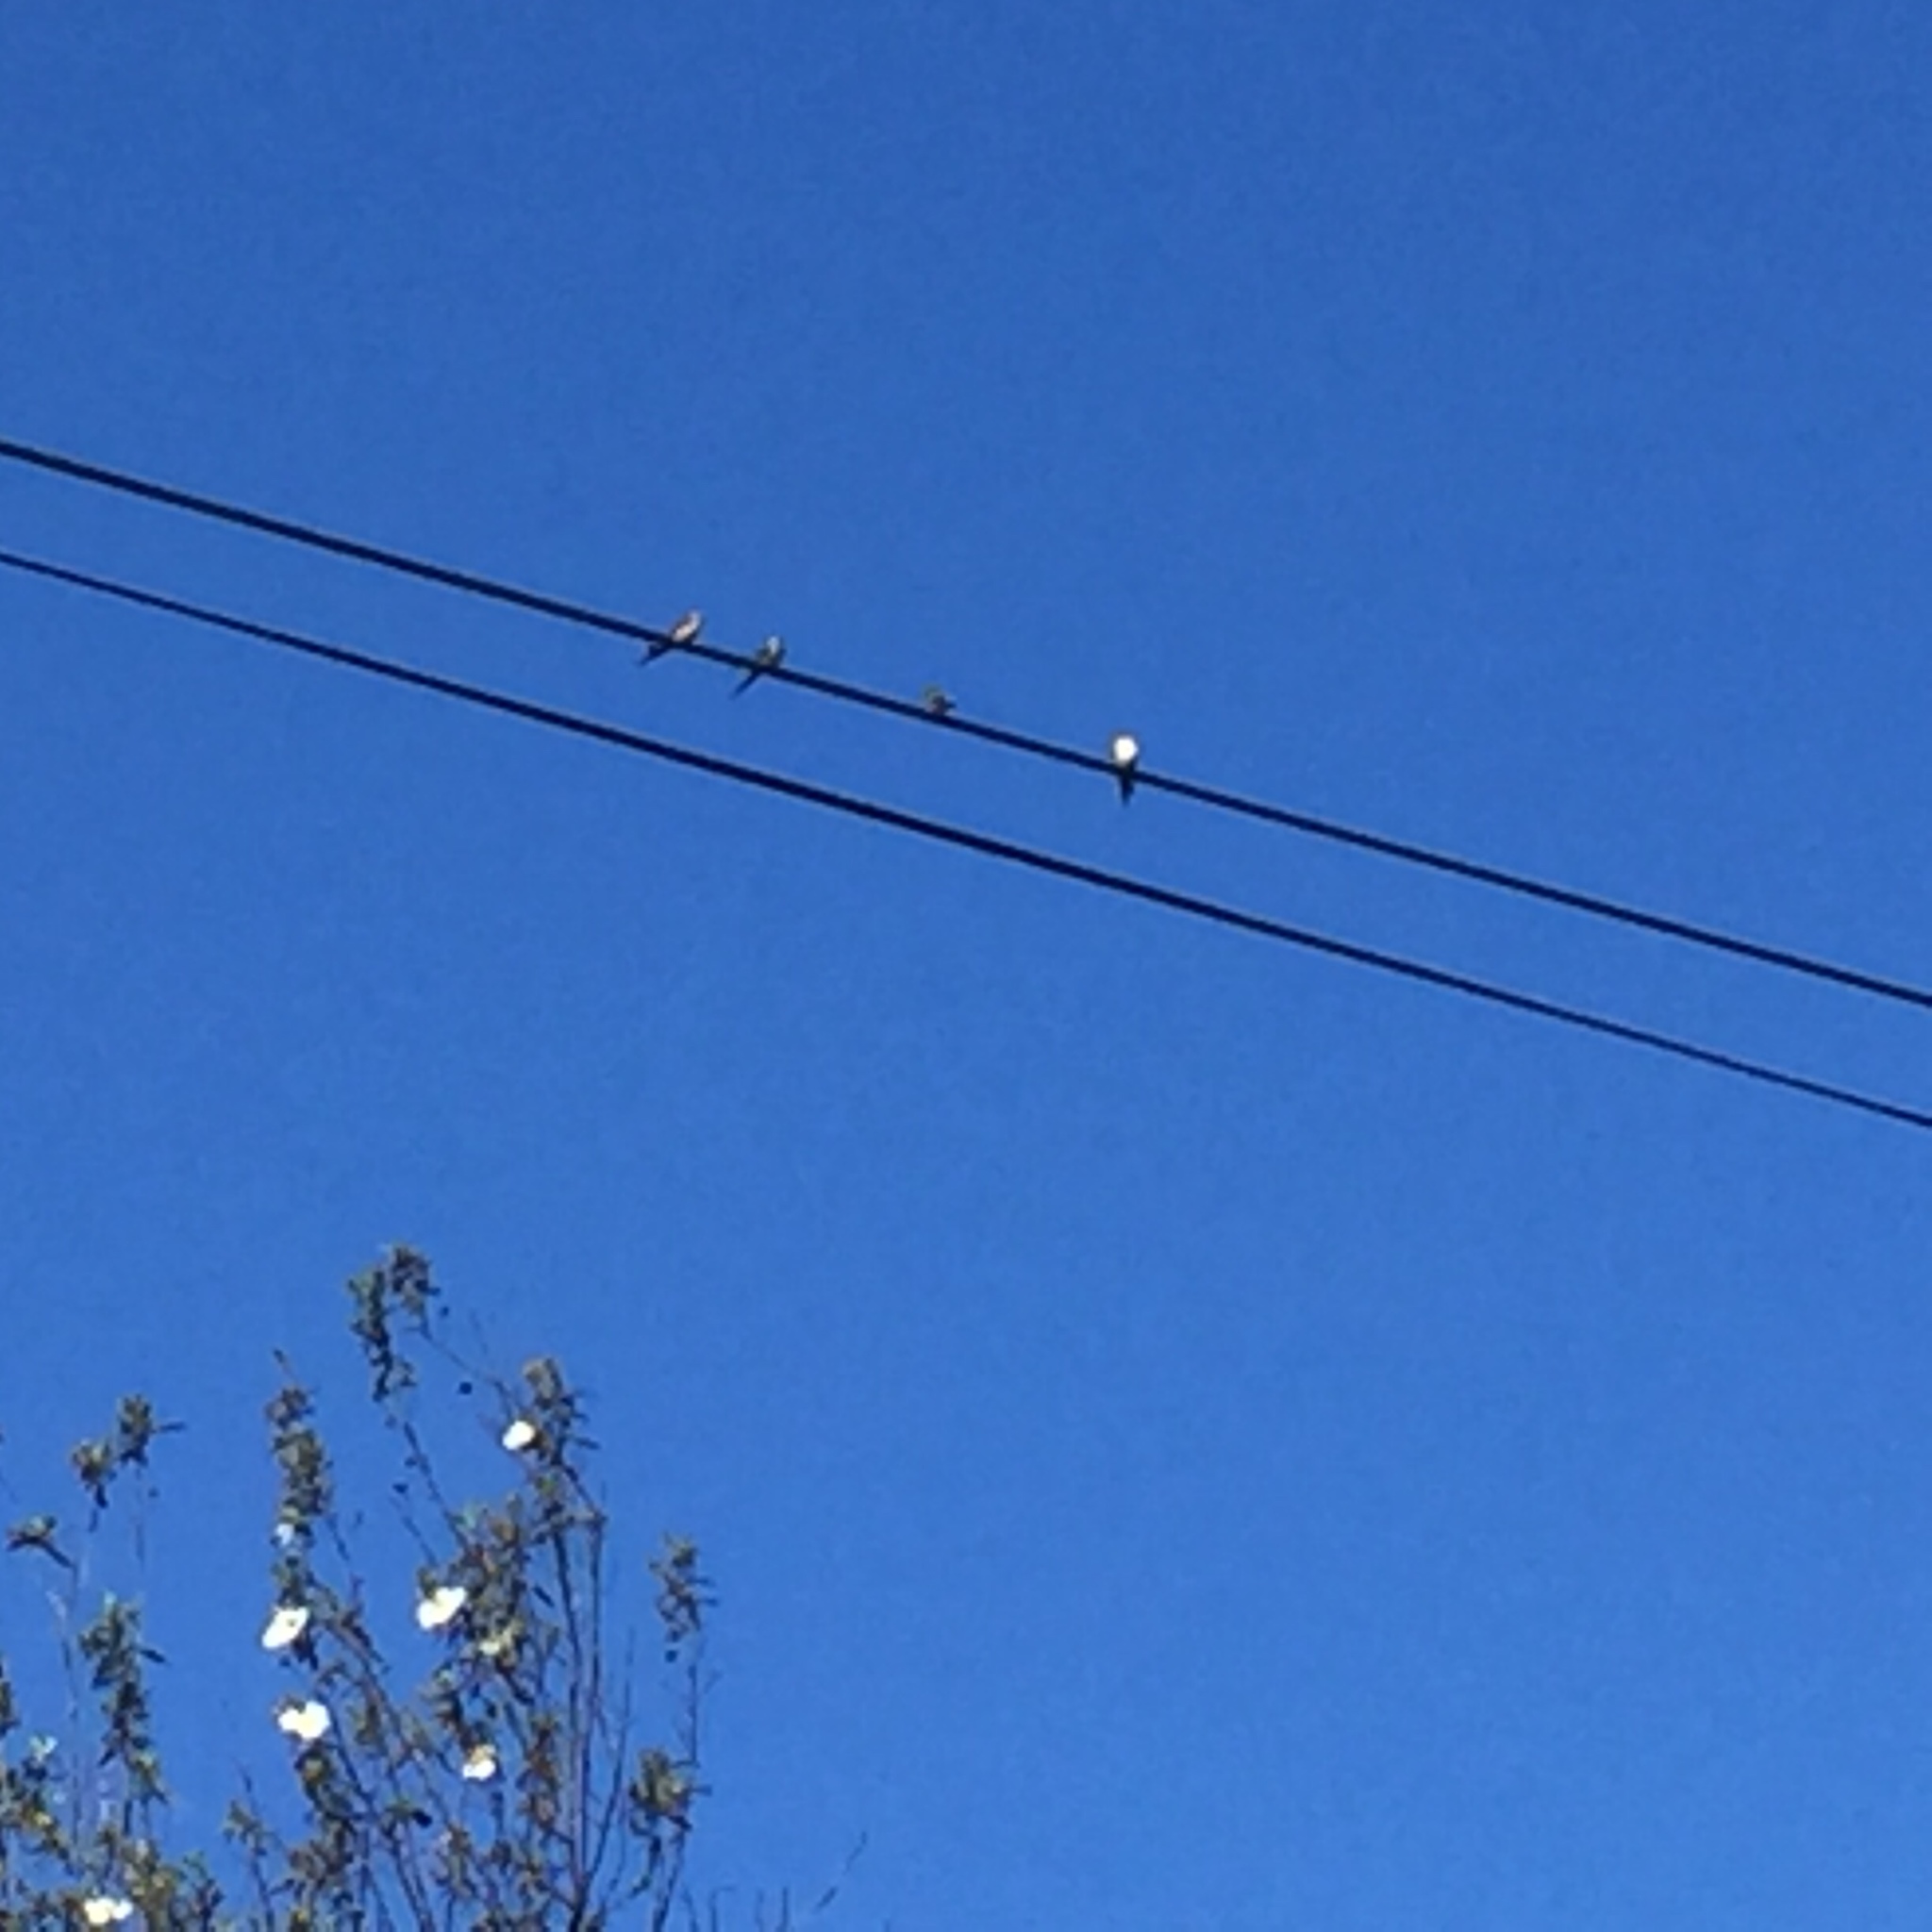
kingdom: Animalia
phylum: Chordata
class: Aves
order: Passeriformes
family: Hirundinidae
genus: Cecropis
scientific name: Cecropis daurica
